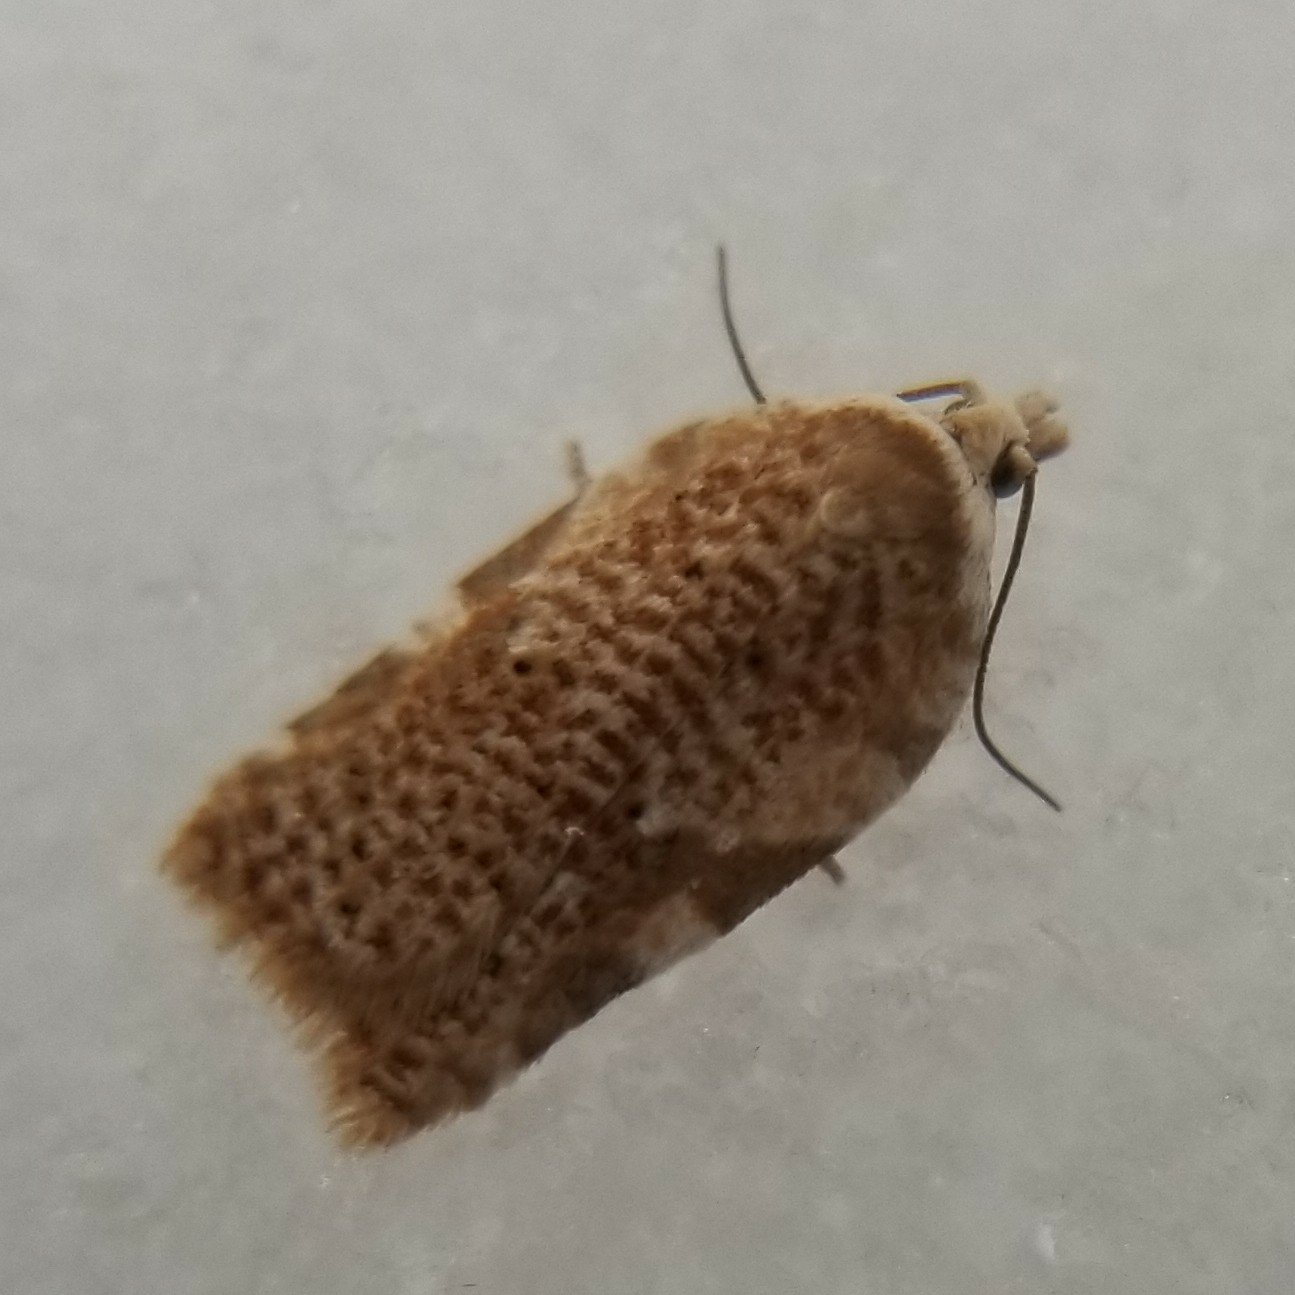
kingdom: Animalia
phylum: Arthropoda
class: Insecta
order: Lepidoptera
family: Tortricidae
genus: Acleris
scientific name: Acleris cervinana
